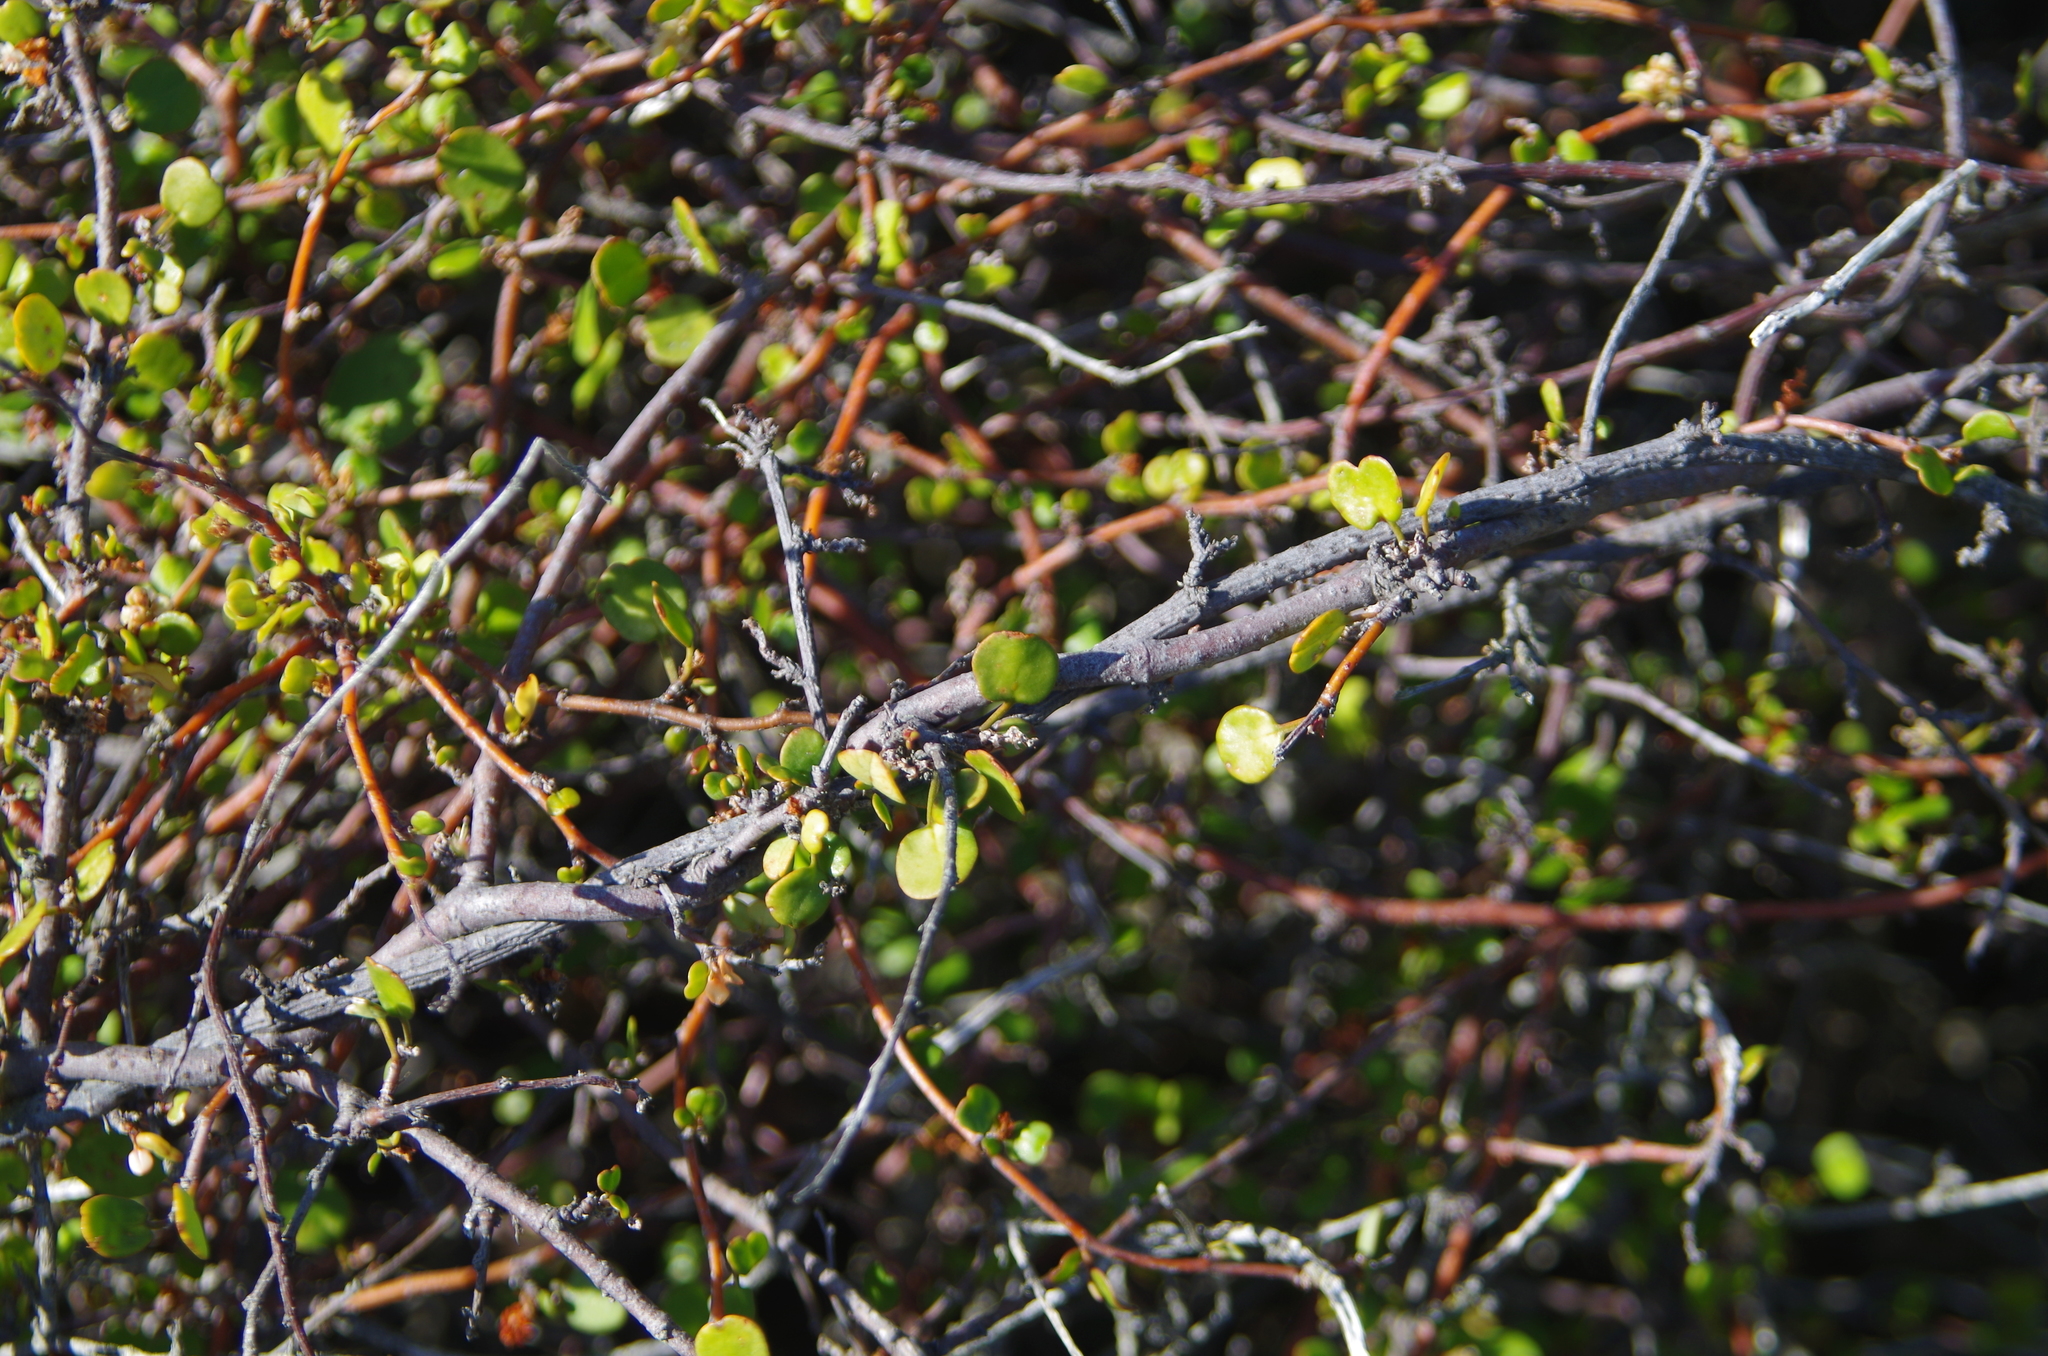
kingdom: Plantae
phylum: Tracheophyta
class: Magnoliopsida
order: Caryophyllales
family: Polygonaceae
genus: Muehlenbeckia
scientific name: Muehlenbeckia complexa
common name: Wireplant
